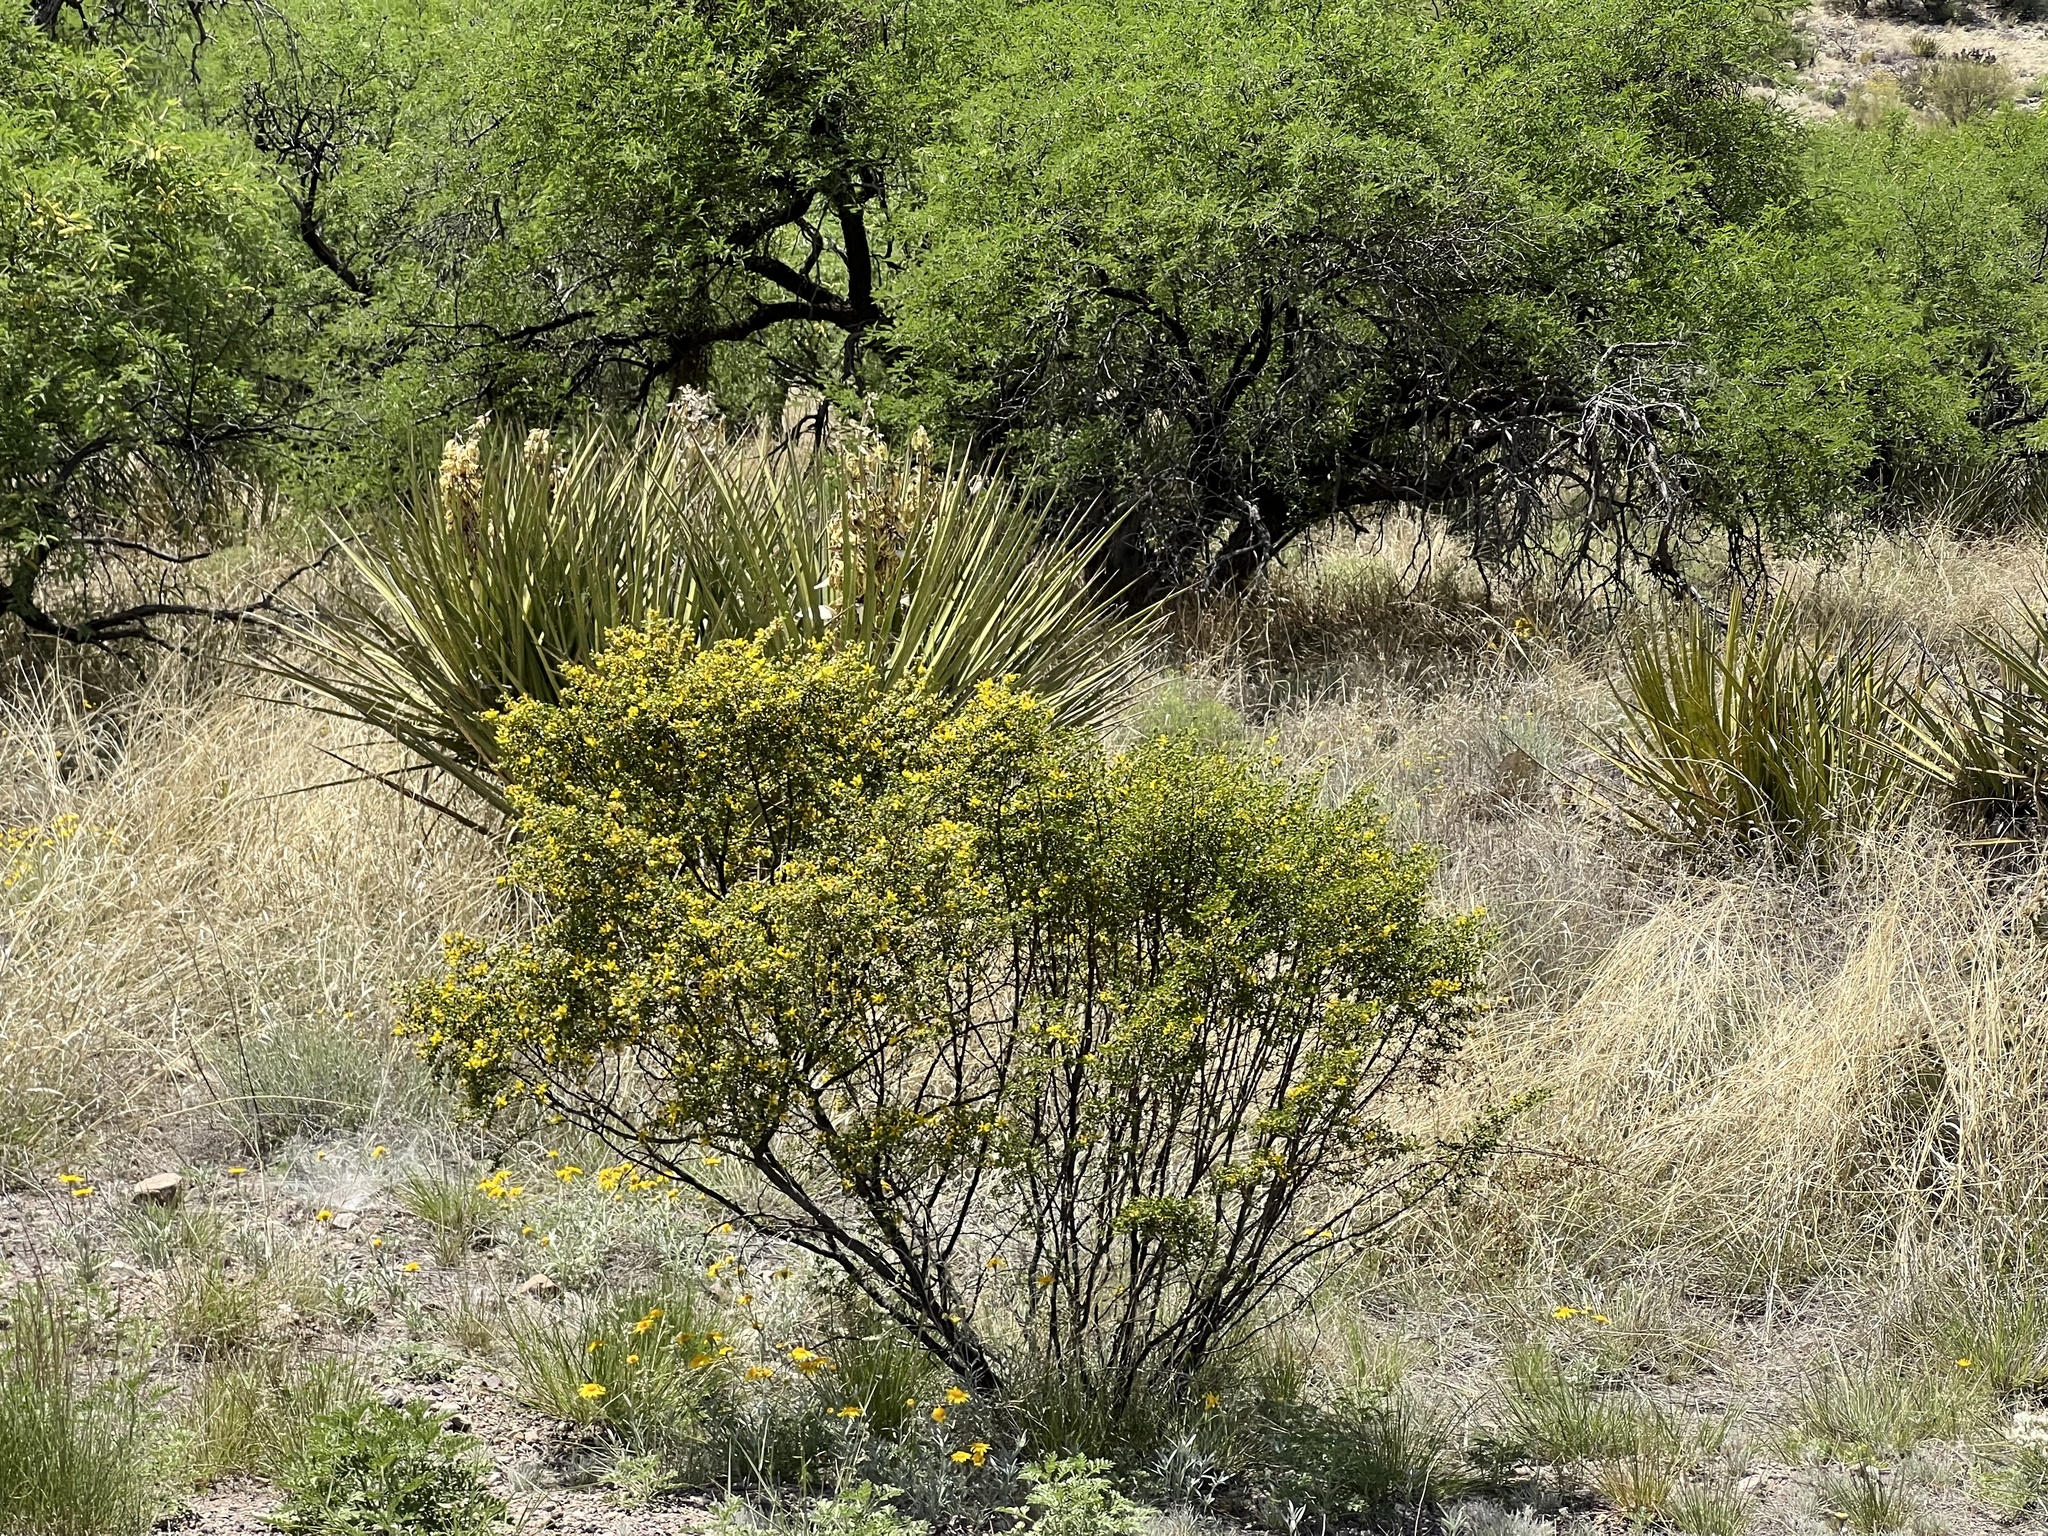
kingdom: Plantae
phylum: Tracheophyta
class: Magnoliopsida
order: Zygophyllales
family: Zygophyllaceae
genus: Larrea
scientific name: Larrea tridentata
